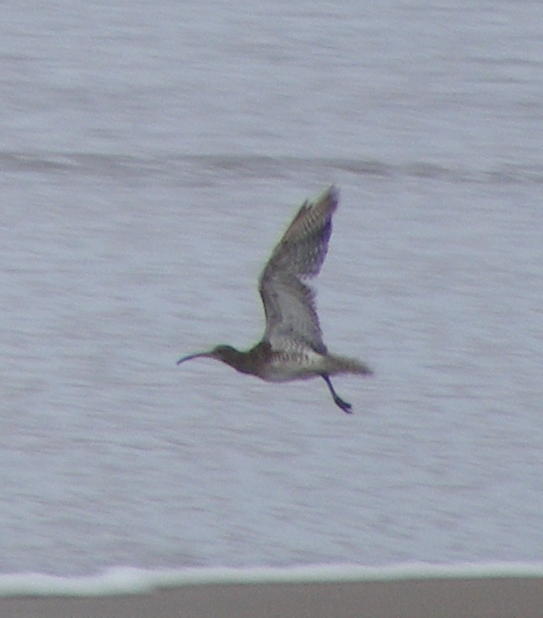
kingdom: Animalia
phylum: Chordata
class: Aves
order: Charadriiformes
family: Scolopacidae
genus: Numenius
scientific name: Numenius phaeopus
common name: Whimbrel
